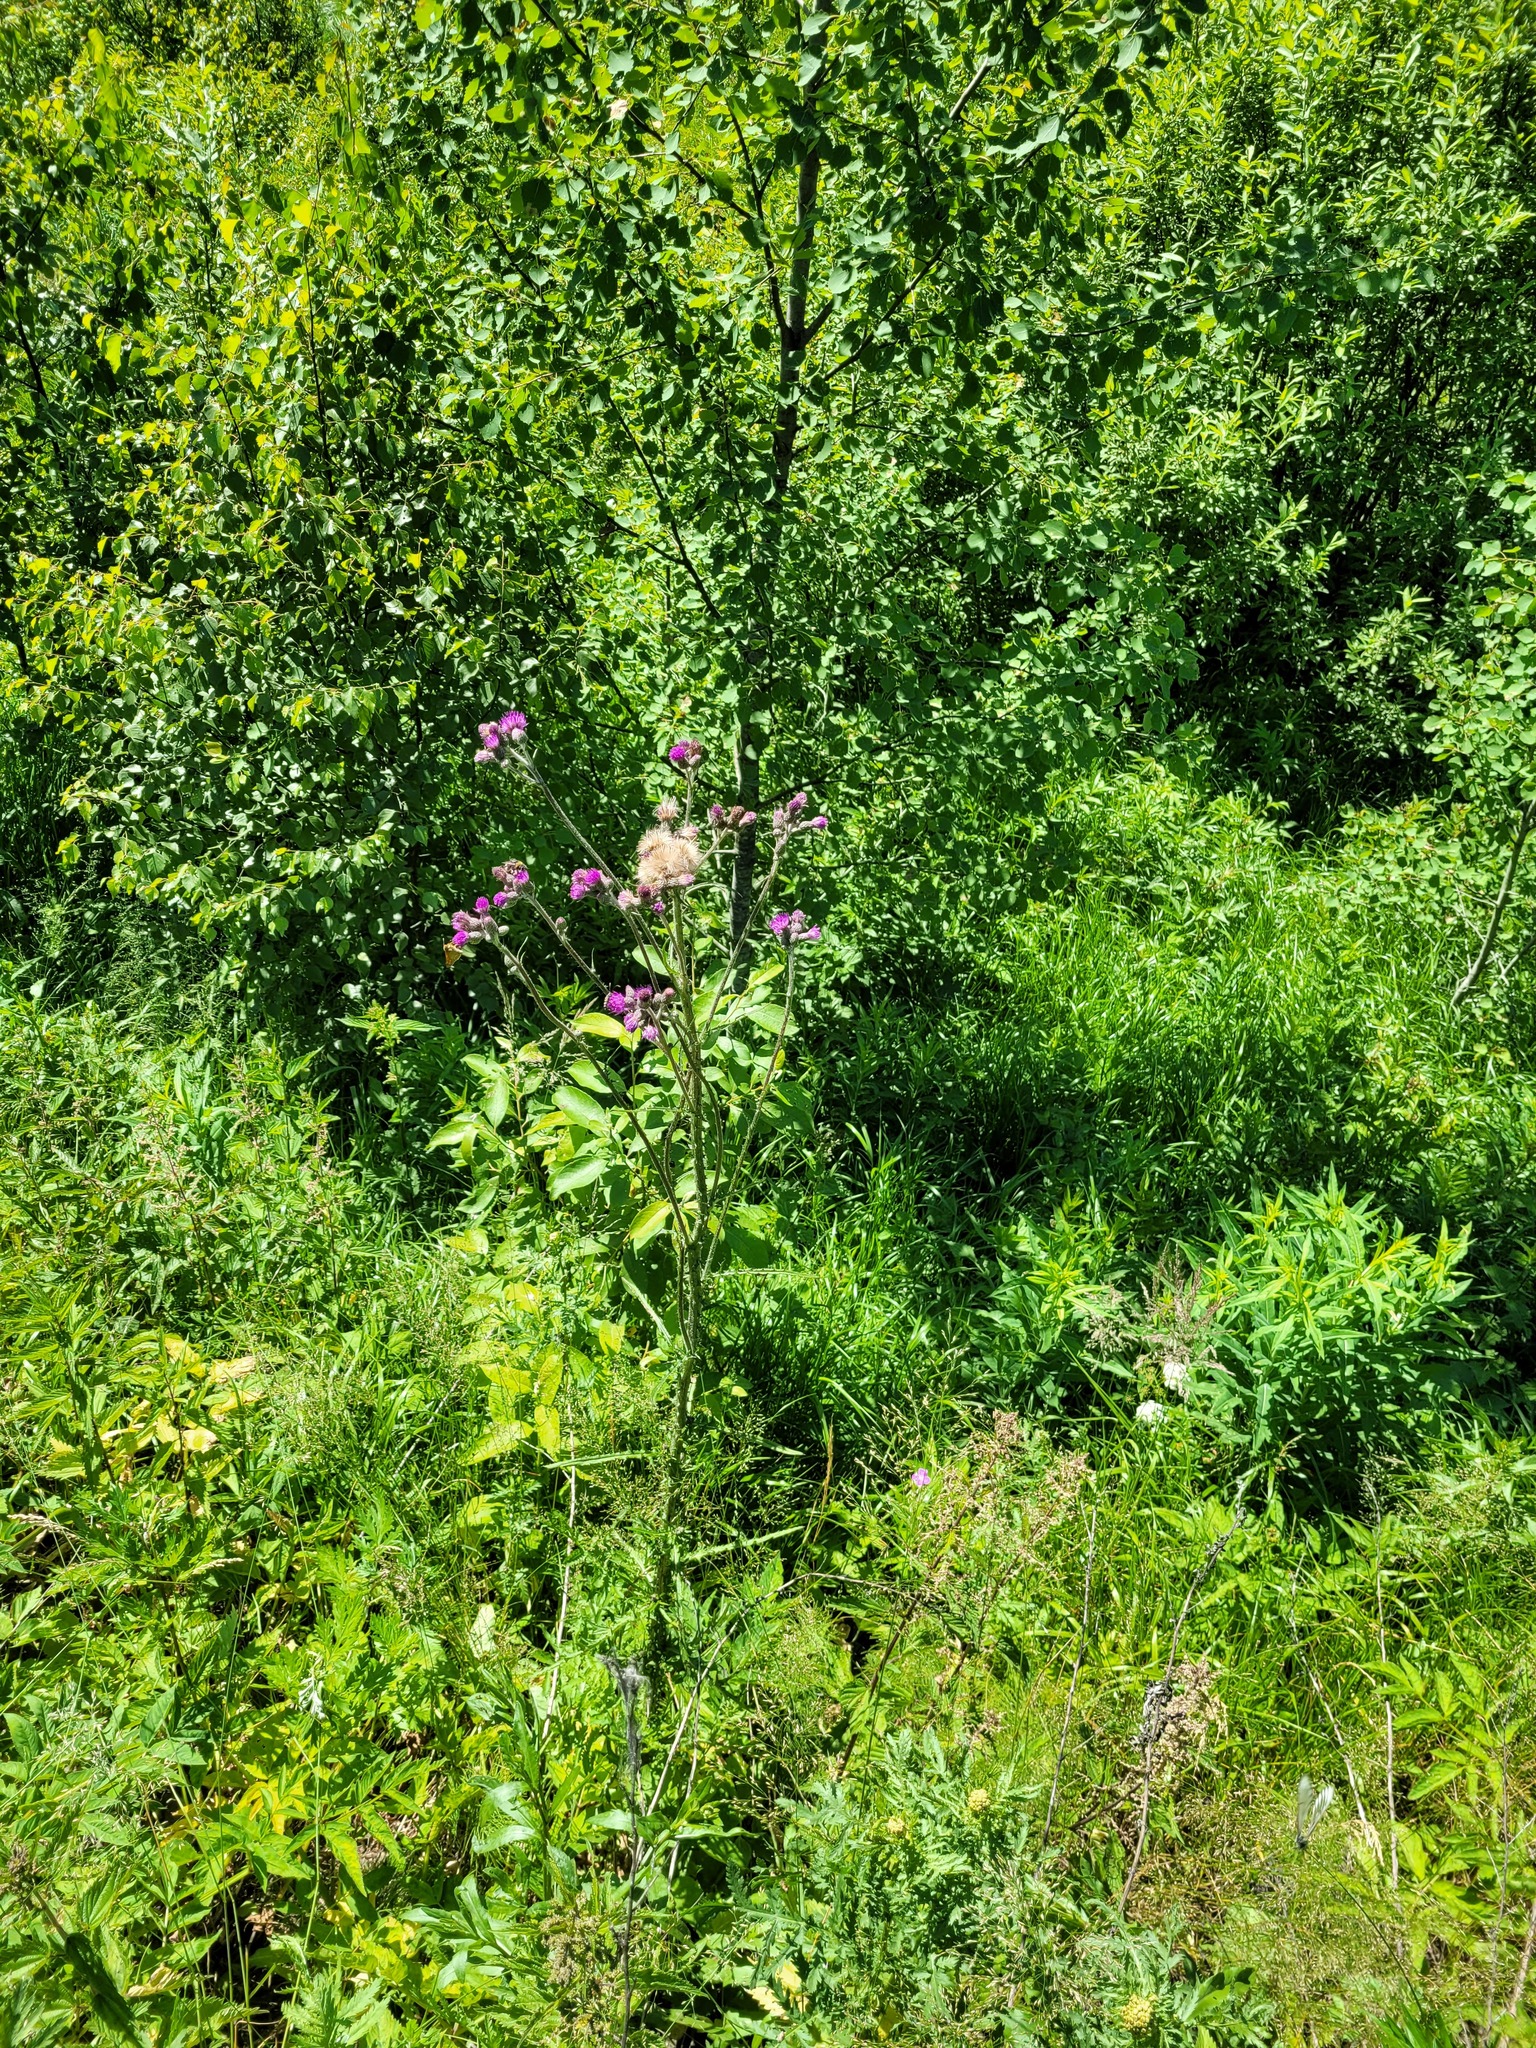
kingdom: Plantae
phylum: Tracheophyta
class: Magnoliopsida
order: Asterales
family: Asteraceae
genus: Cirsium
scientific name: Cirsium palustre
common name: Marsh thistle
